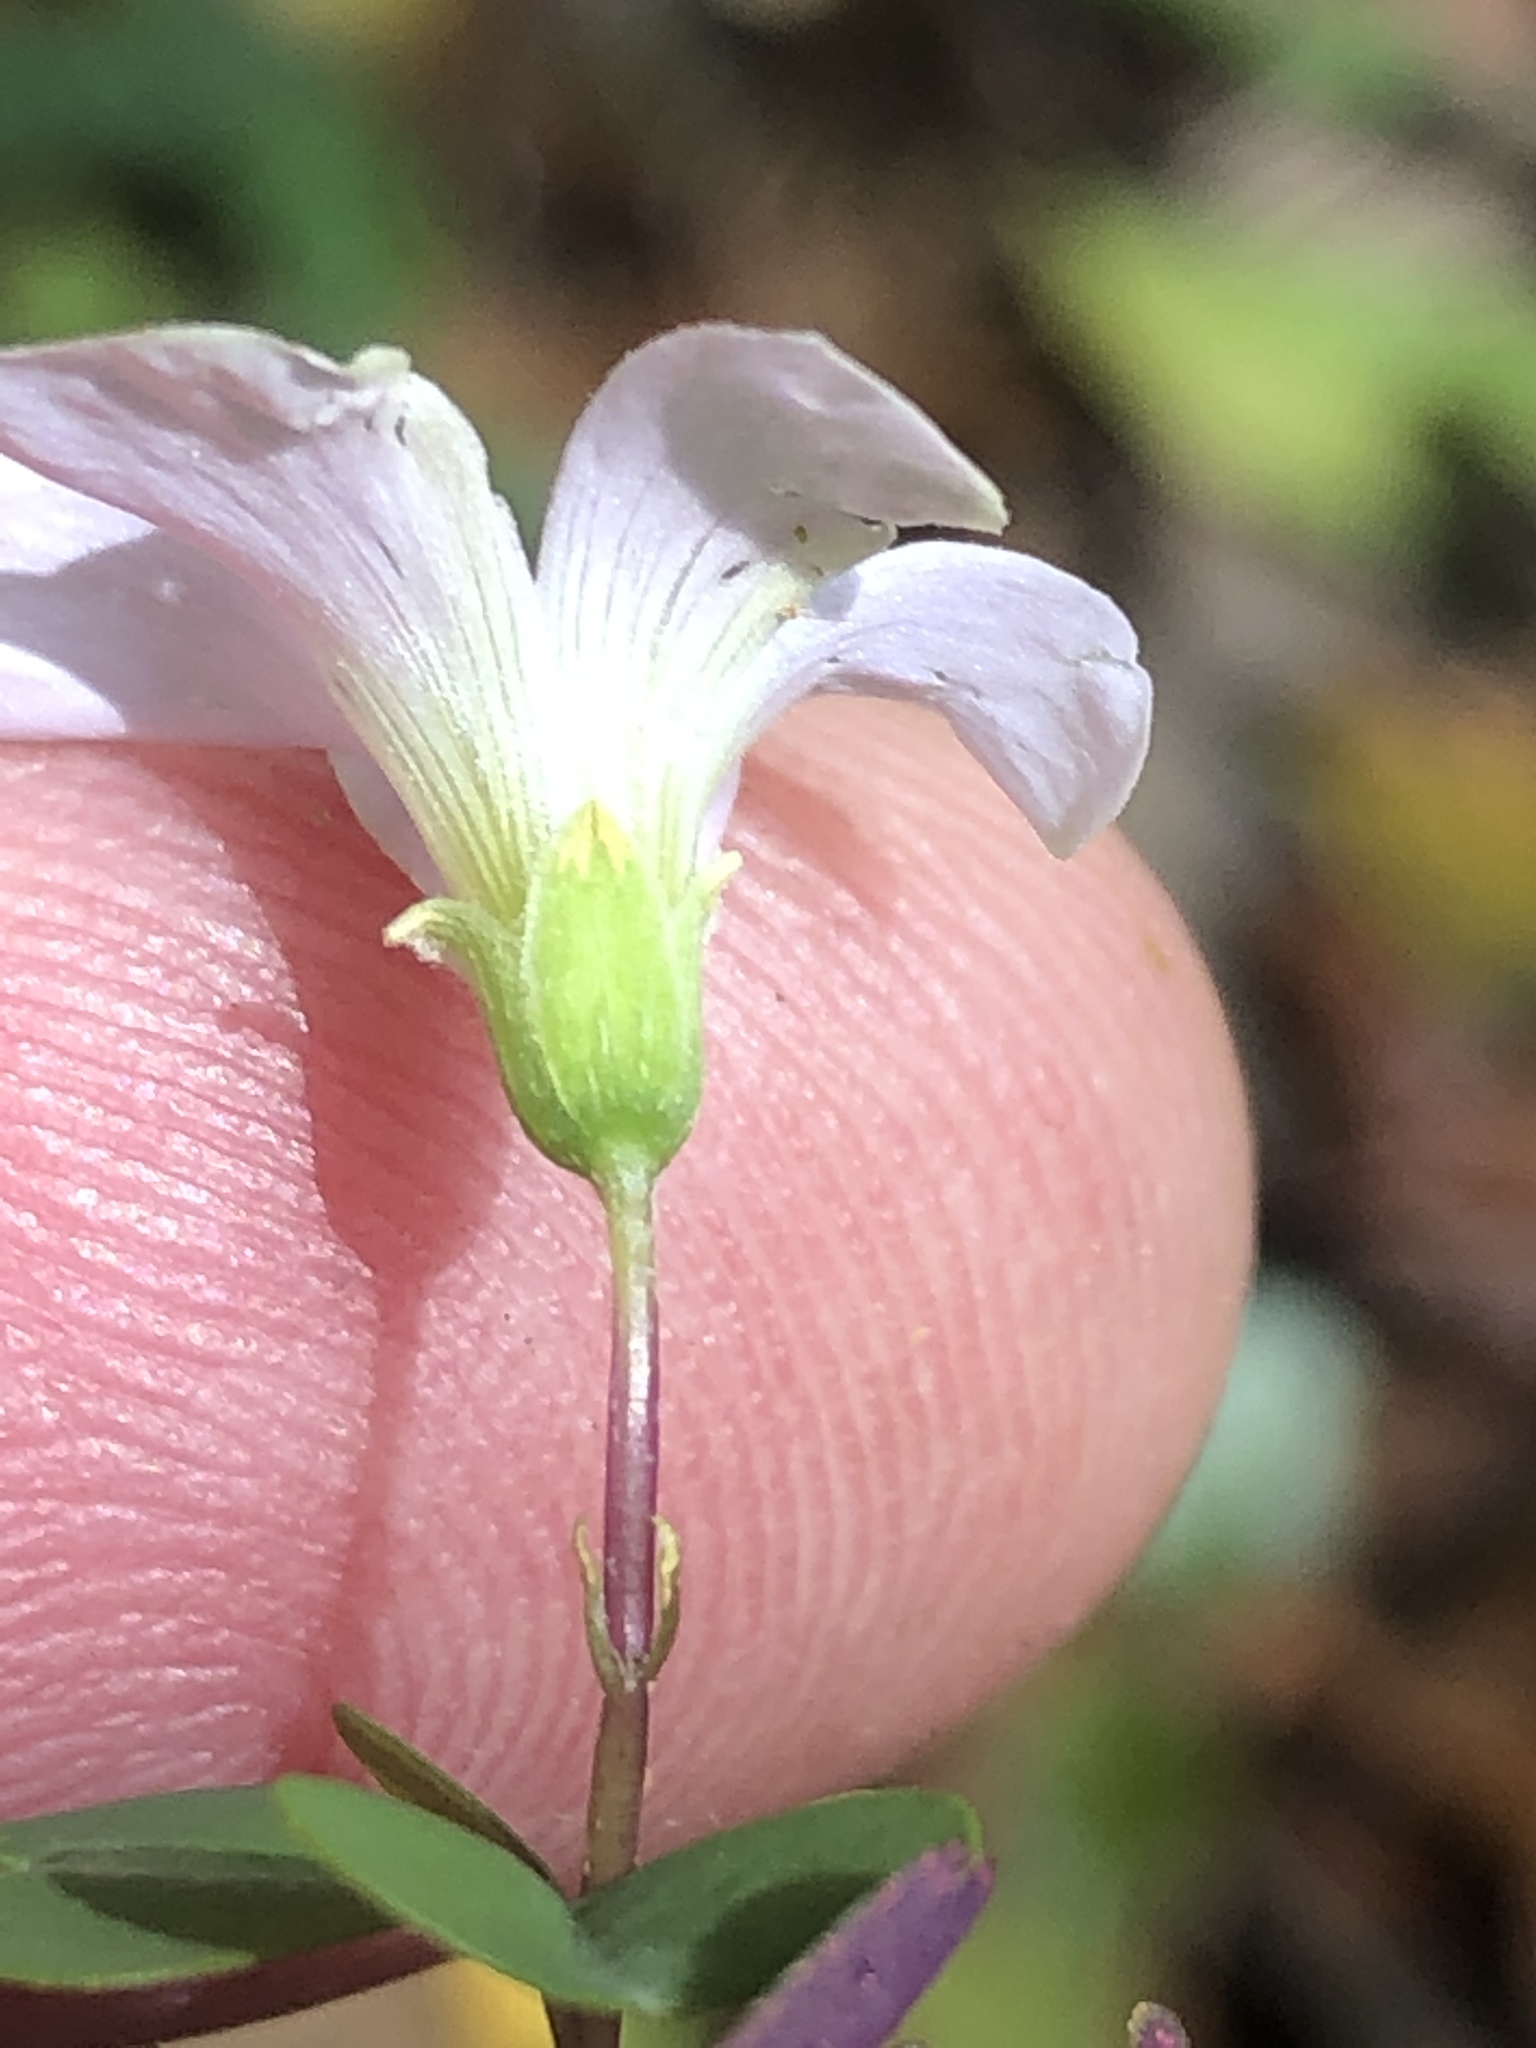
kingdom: Plantae
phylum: Tracheophyta
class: Magnoliopsida
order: Oxalidales
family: Oxalidaceae
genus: Oxalis
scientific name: Oxalis incarnata
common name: Pale pink-sorrel
